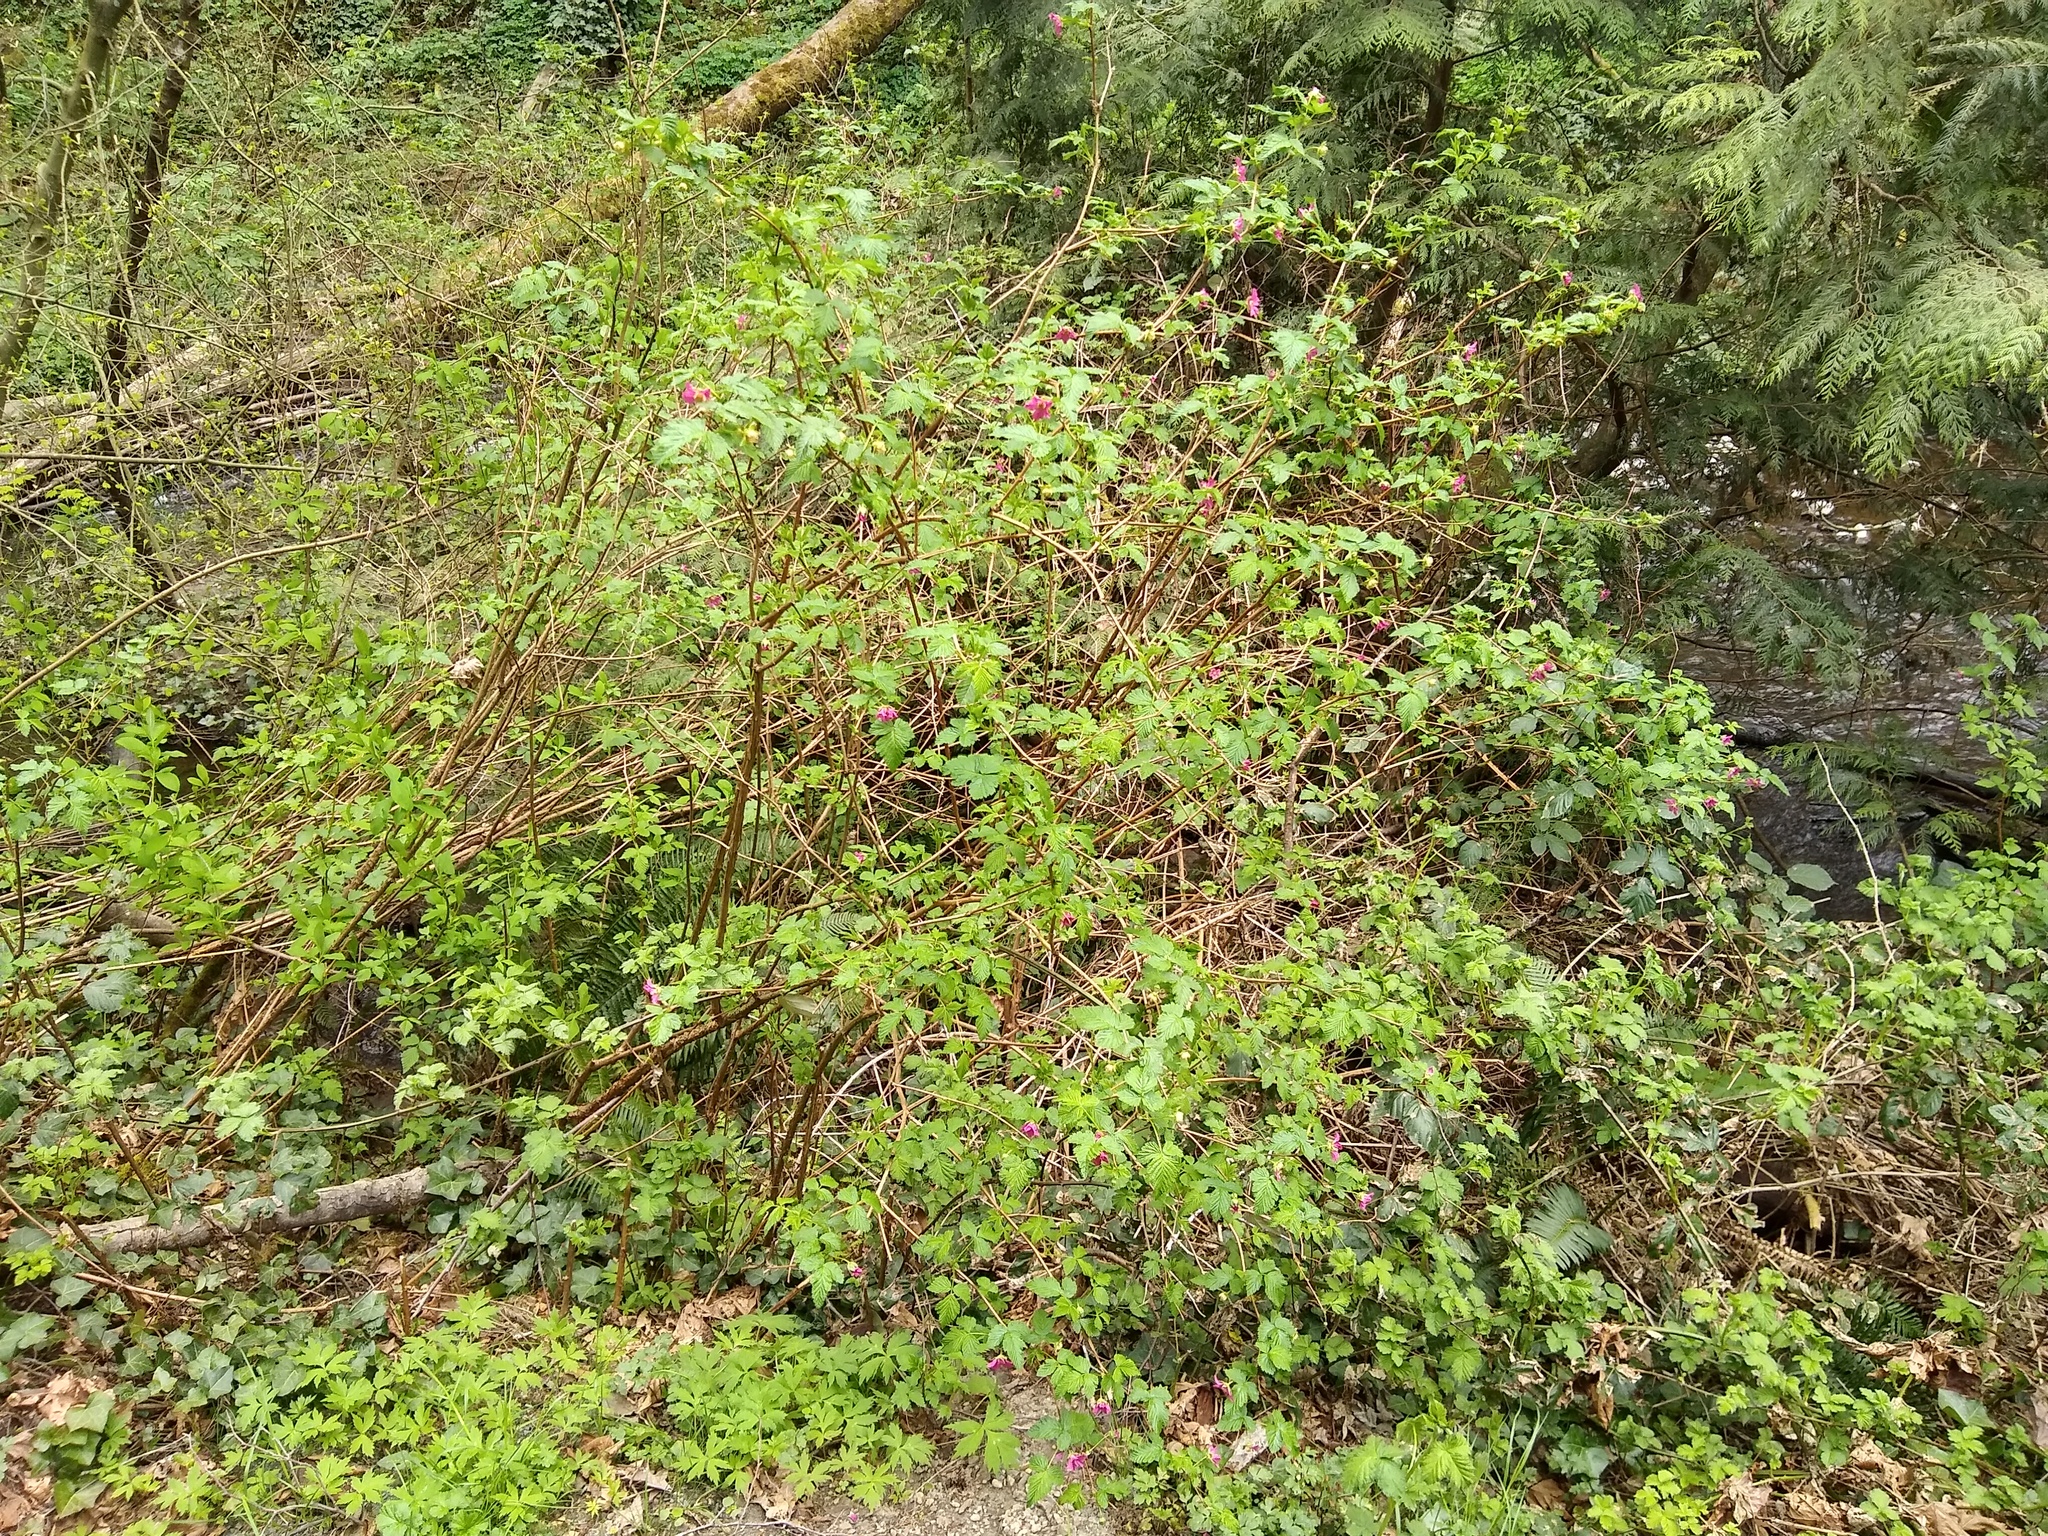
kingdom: Plantae
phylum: Tracheophyta
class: Magnoliopsida
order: Rosales
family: Rosaceae
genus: Rubus
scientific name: Rubus spectabilis
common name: Salmonberry
